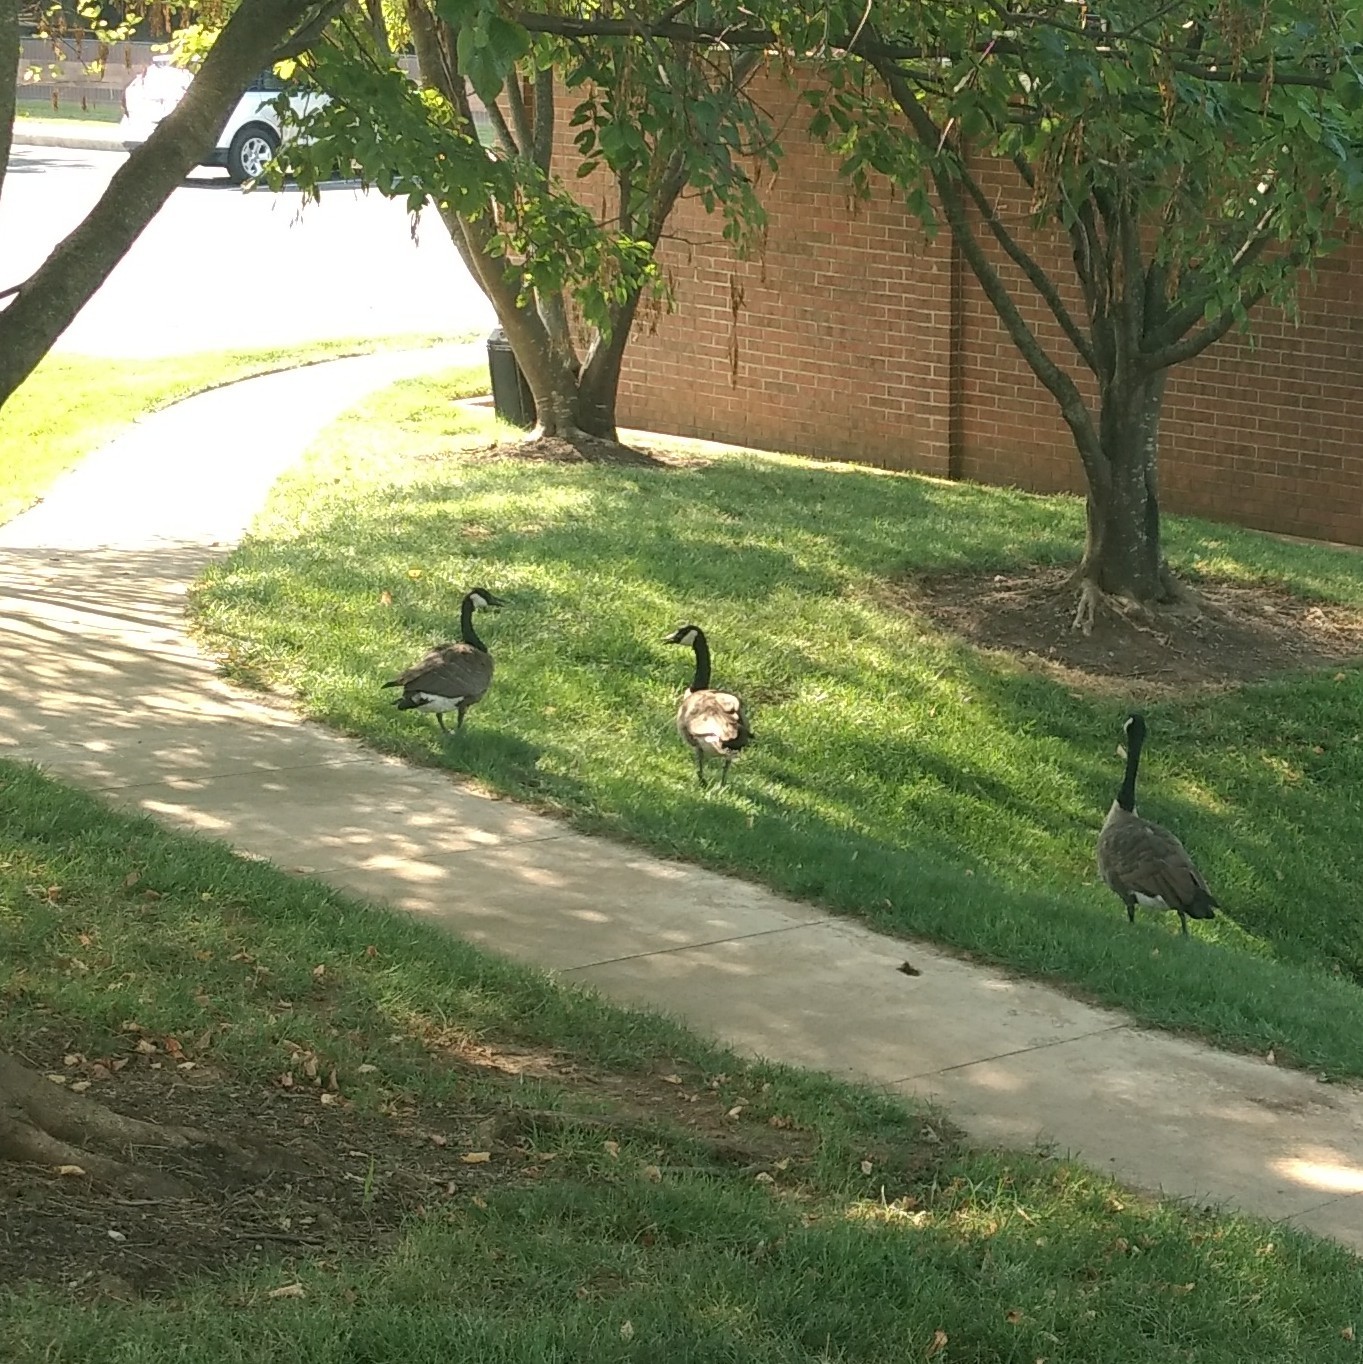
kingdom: Animalia
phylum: Chordata
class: Aves
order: Anseriformes
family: Anatidae
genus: Branta
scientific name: Branta canadensis
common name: Canada goose
